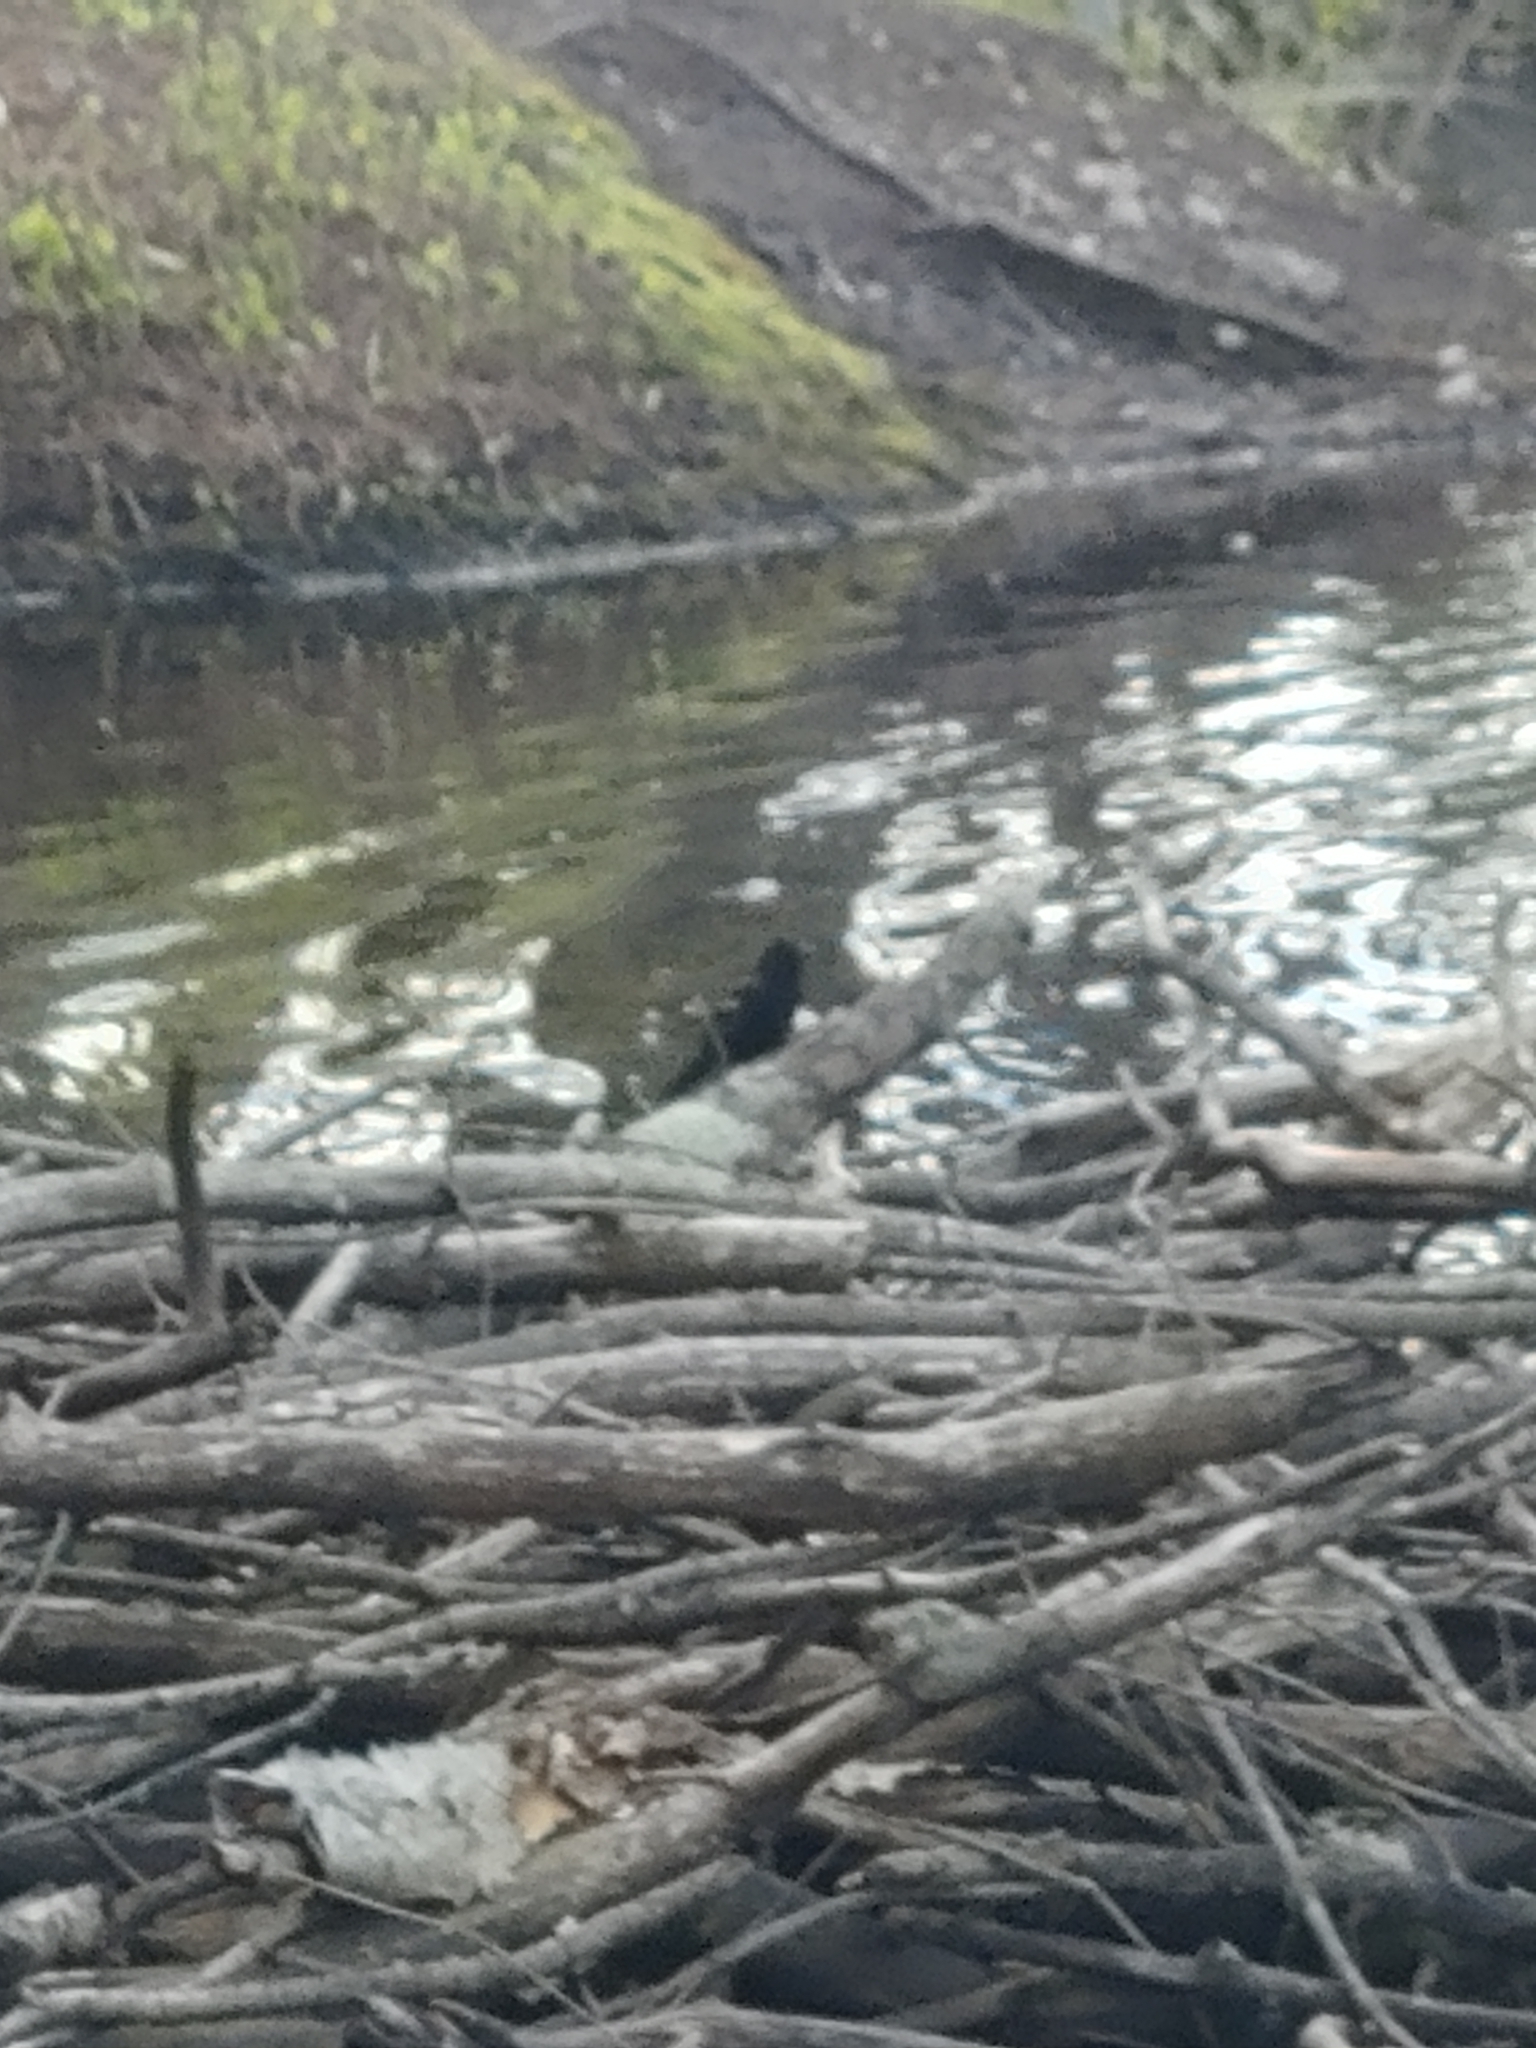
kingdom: Animalia
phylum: Chordata
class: Aves
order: Passeriformes
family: Icteridae
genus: Agelaius
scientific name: Agelaius phoeniceus
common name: Red-winged blackbird
